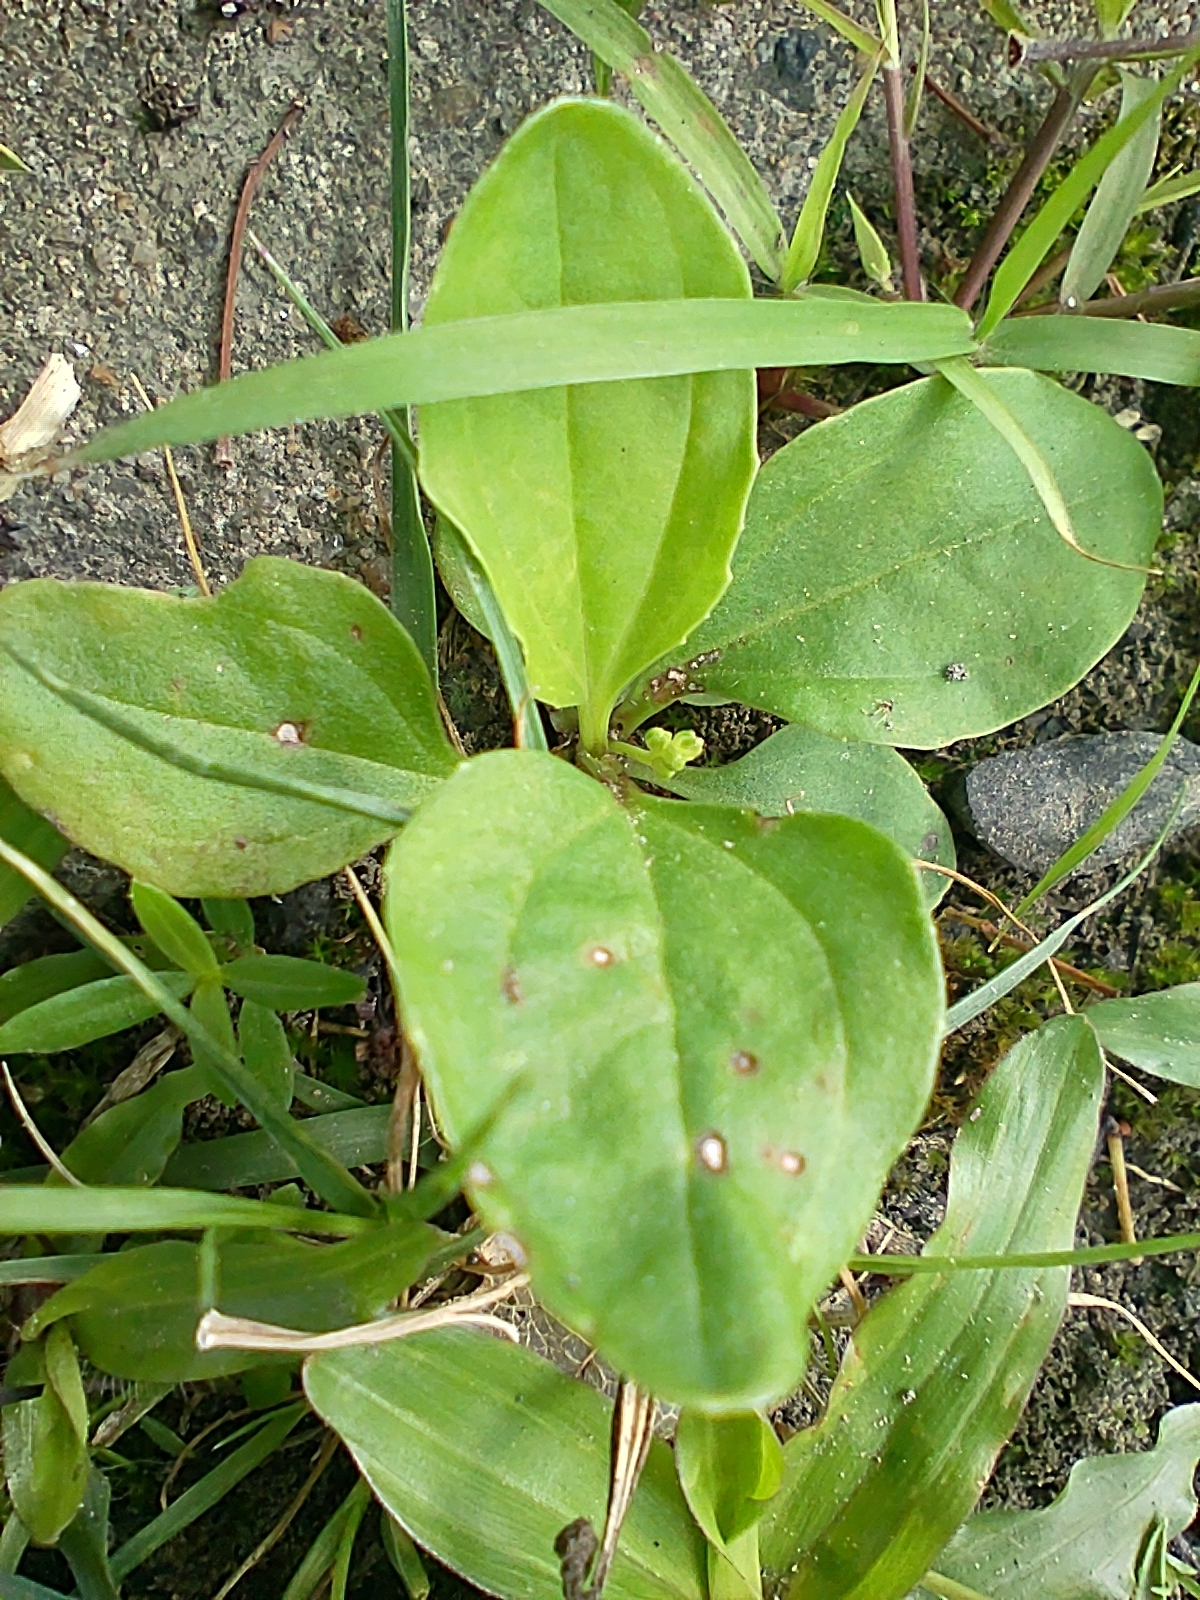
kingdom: Plantae
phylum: Tracheophyta
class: Magnoliopsida
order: Lamiales
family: Plantaginaceae
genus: Plantago
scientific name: Plantago asiatica
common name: Psyllium
